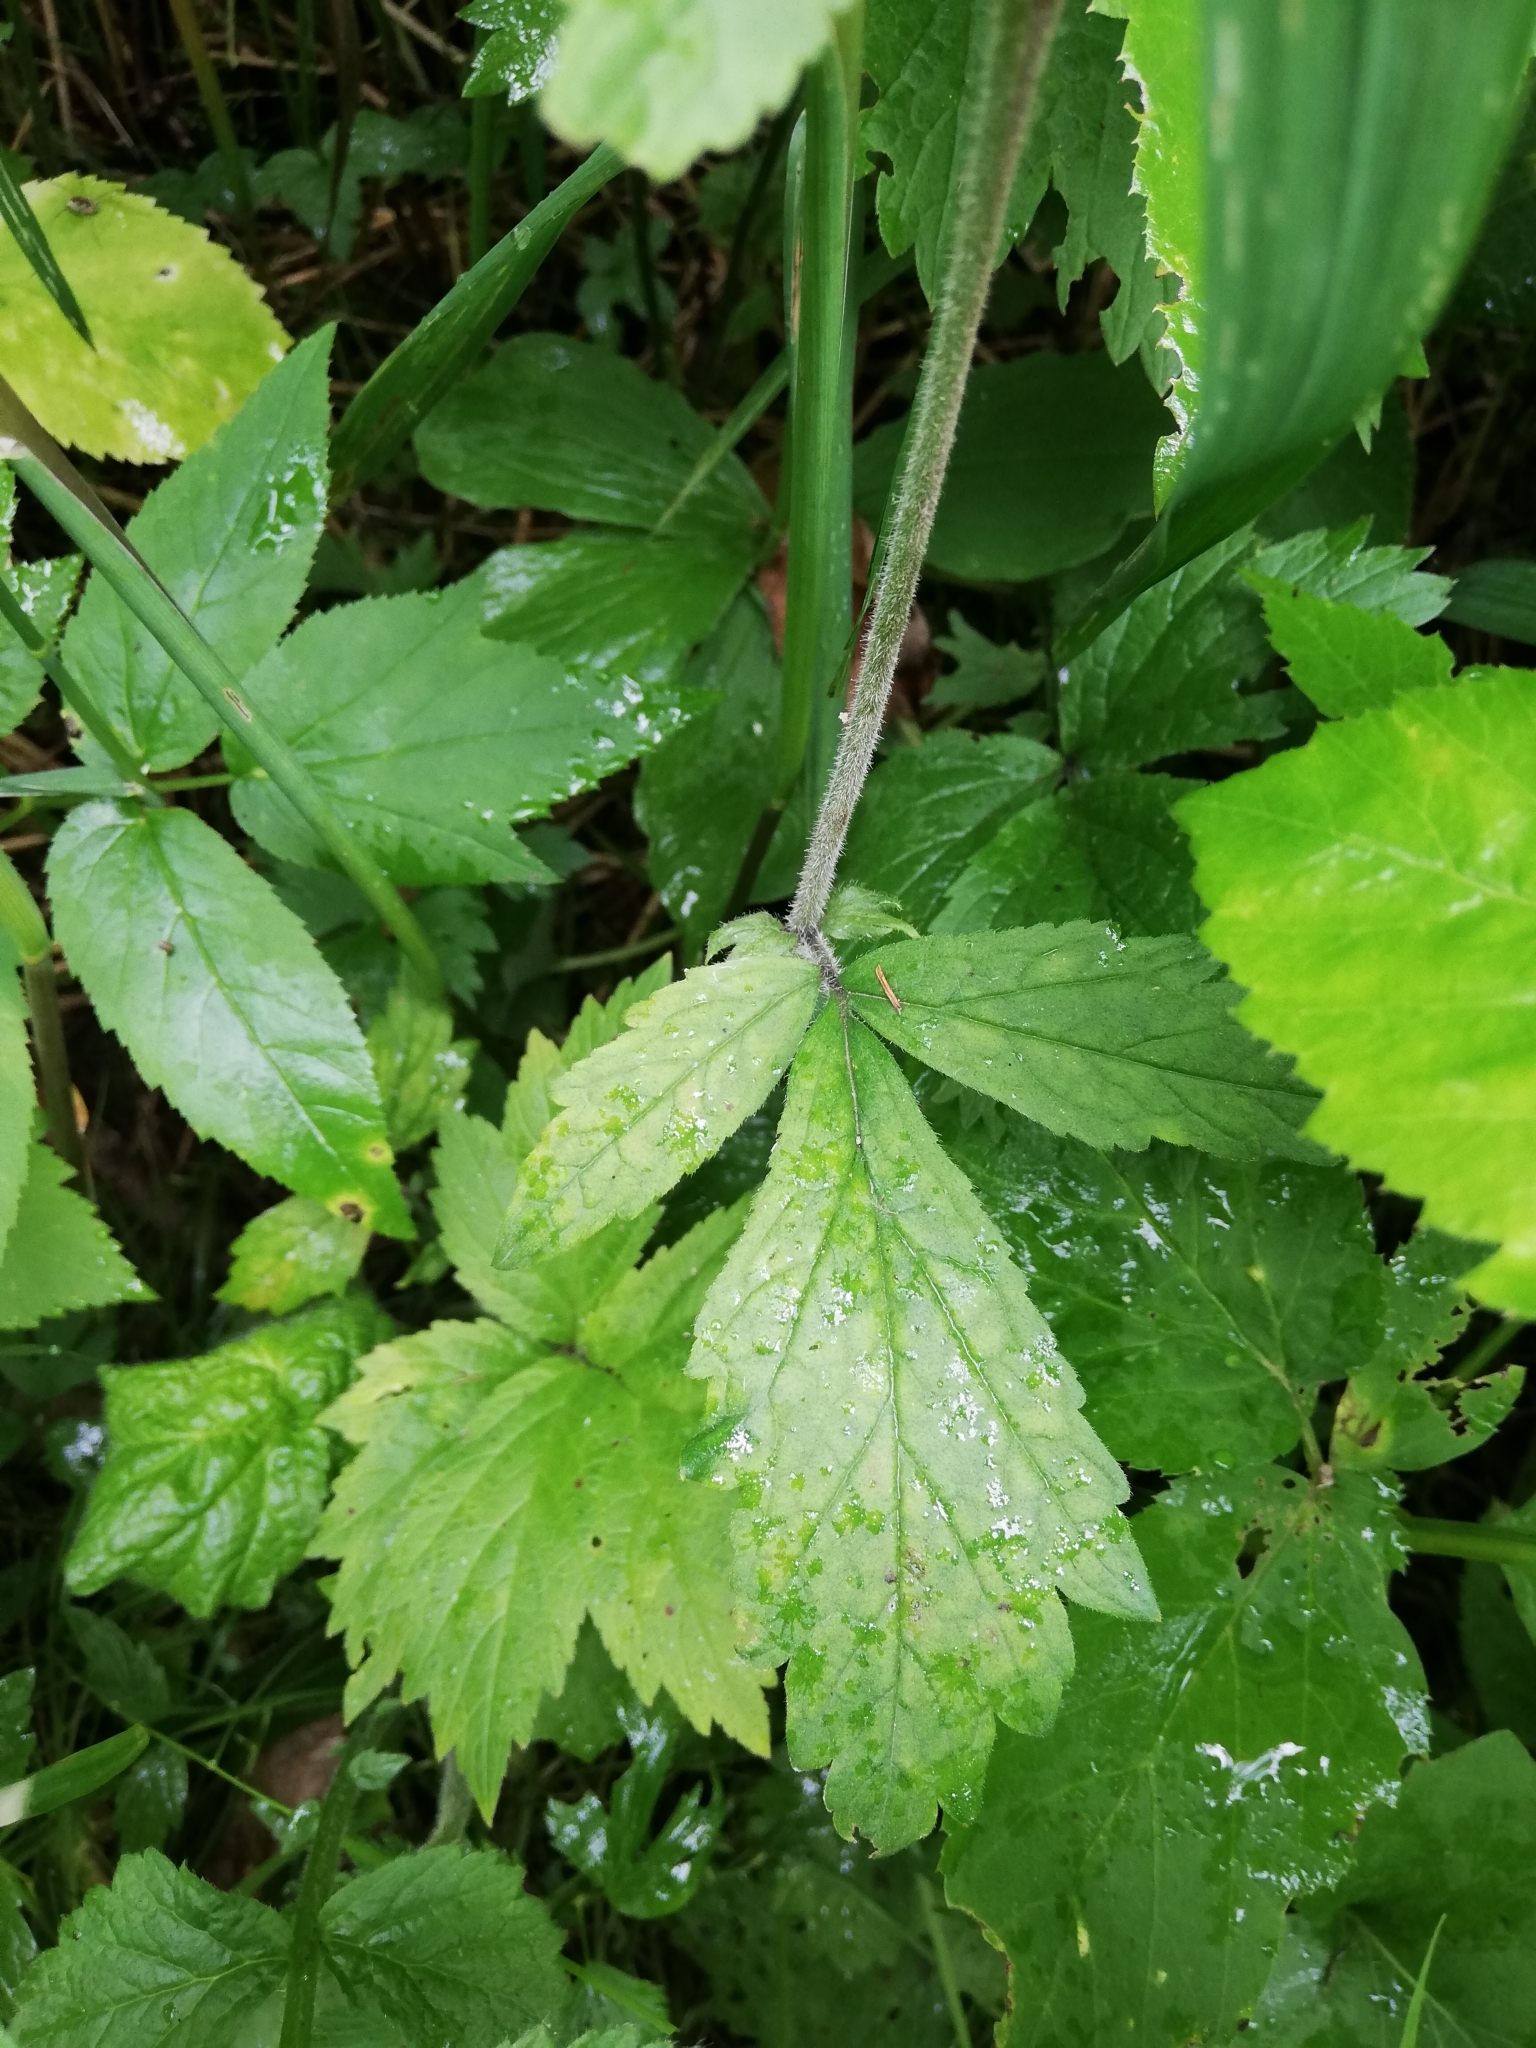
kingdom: Plantae
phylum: Tracheophyta
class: Magnoliopsida
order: Rosales
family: Rosaceae
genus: Geum
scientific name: Geum rivale
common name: Water avens
